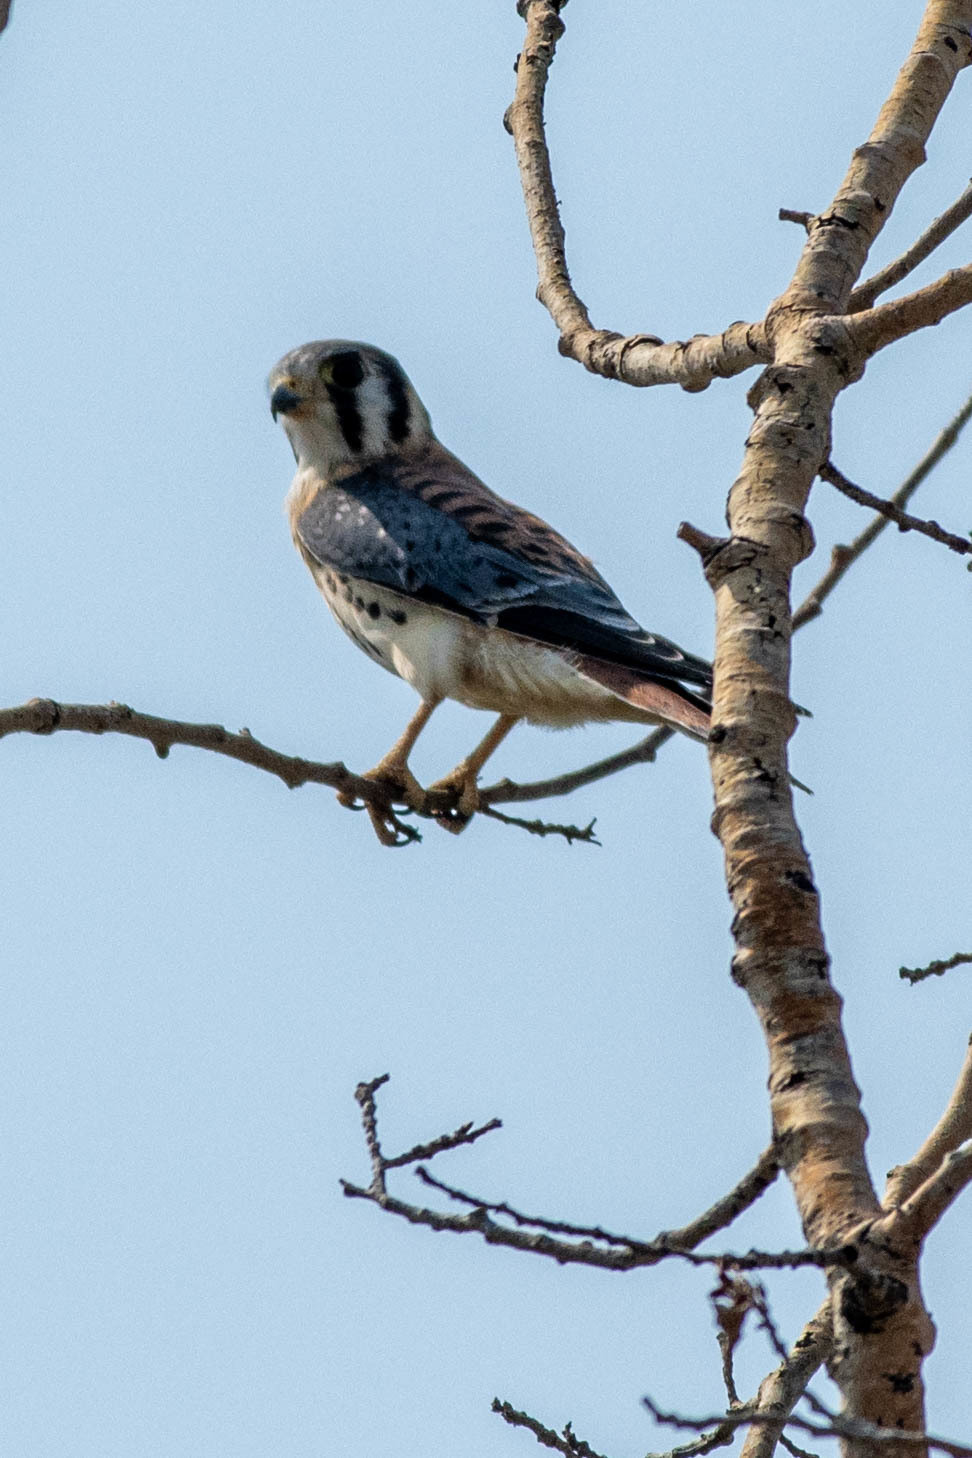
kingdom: Animalia
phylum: Chordata
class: Aves
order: Falconiformes
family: Falconidae
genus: Falco
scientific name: Falco sparverius
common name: American kestrel
